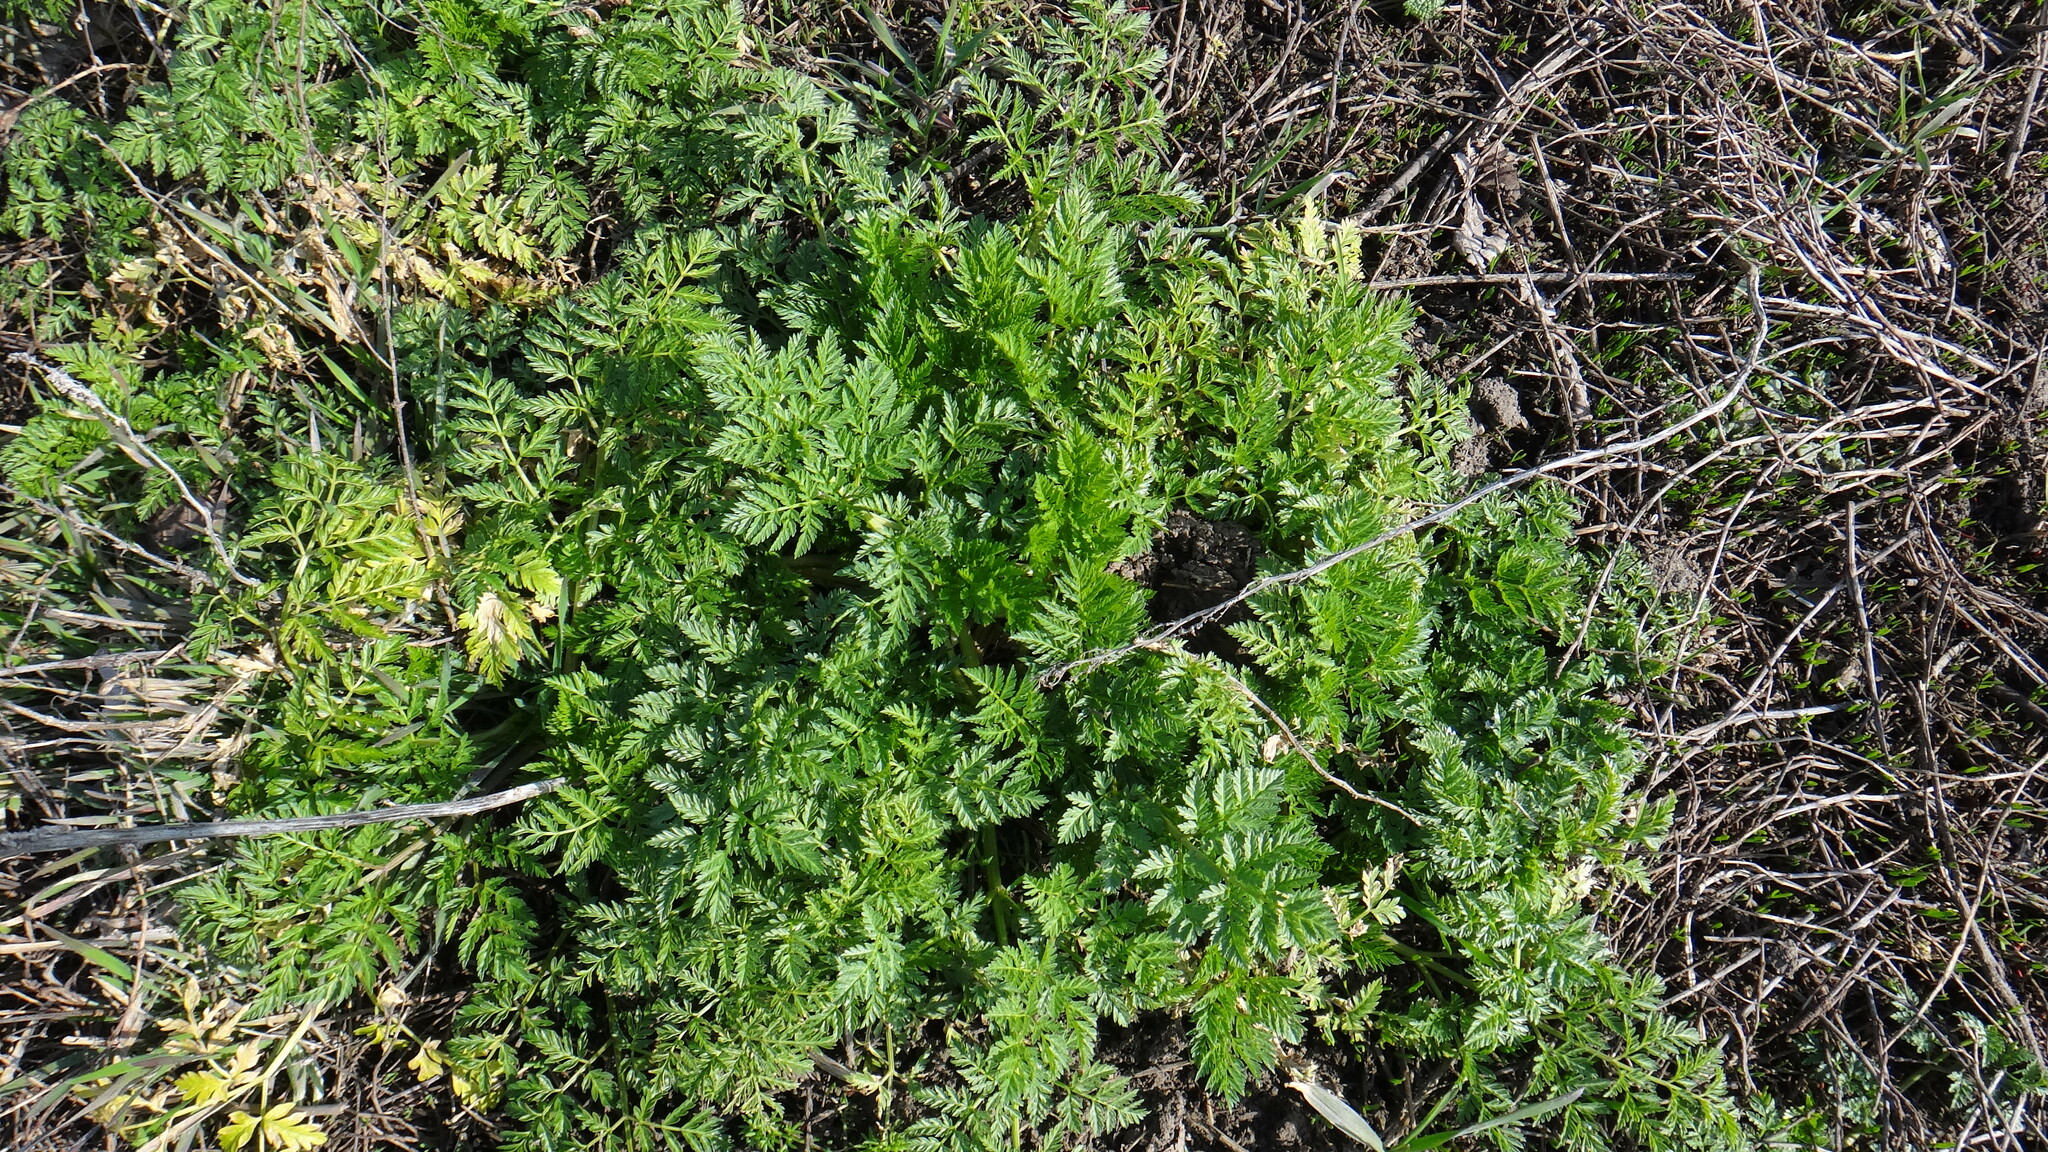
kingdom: Plantae
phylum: Tracheophyta
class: Magnoliopsida
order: Apiales
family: Apiaceae
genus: Conium
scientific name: Conium maculatum
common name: Hemlock
